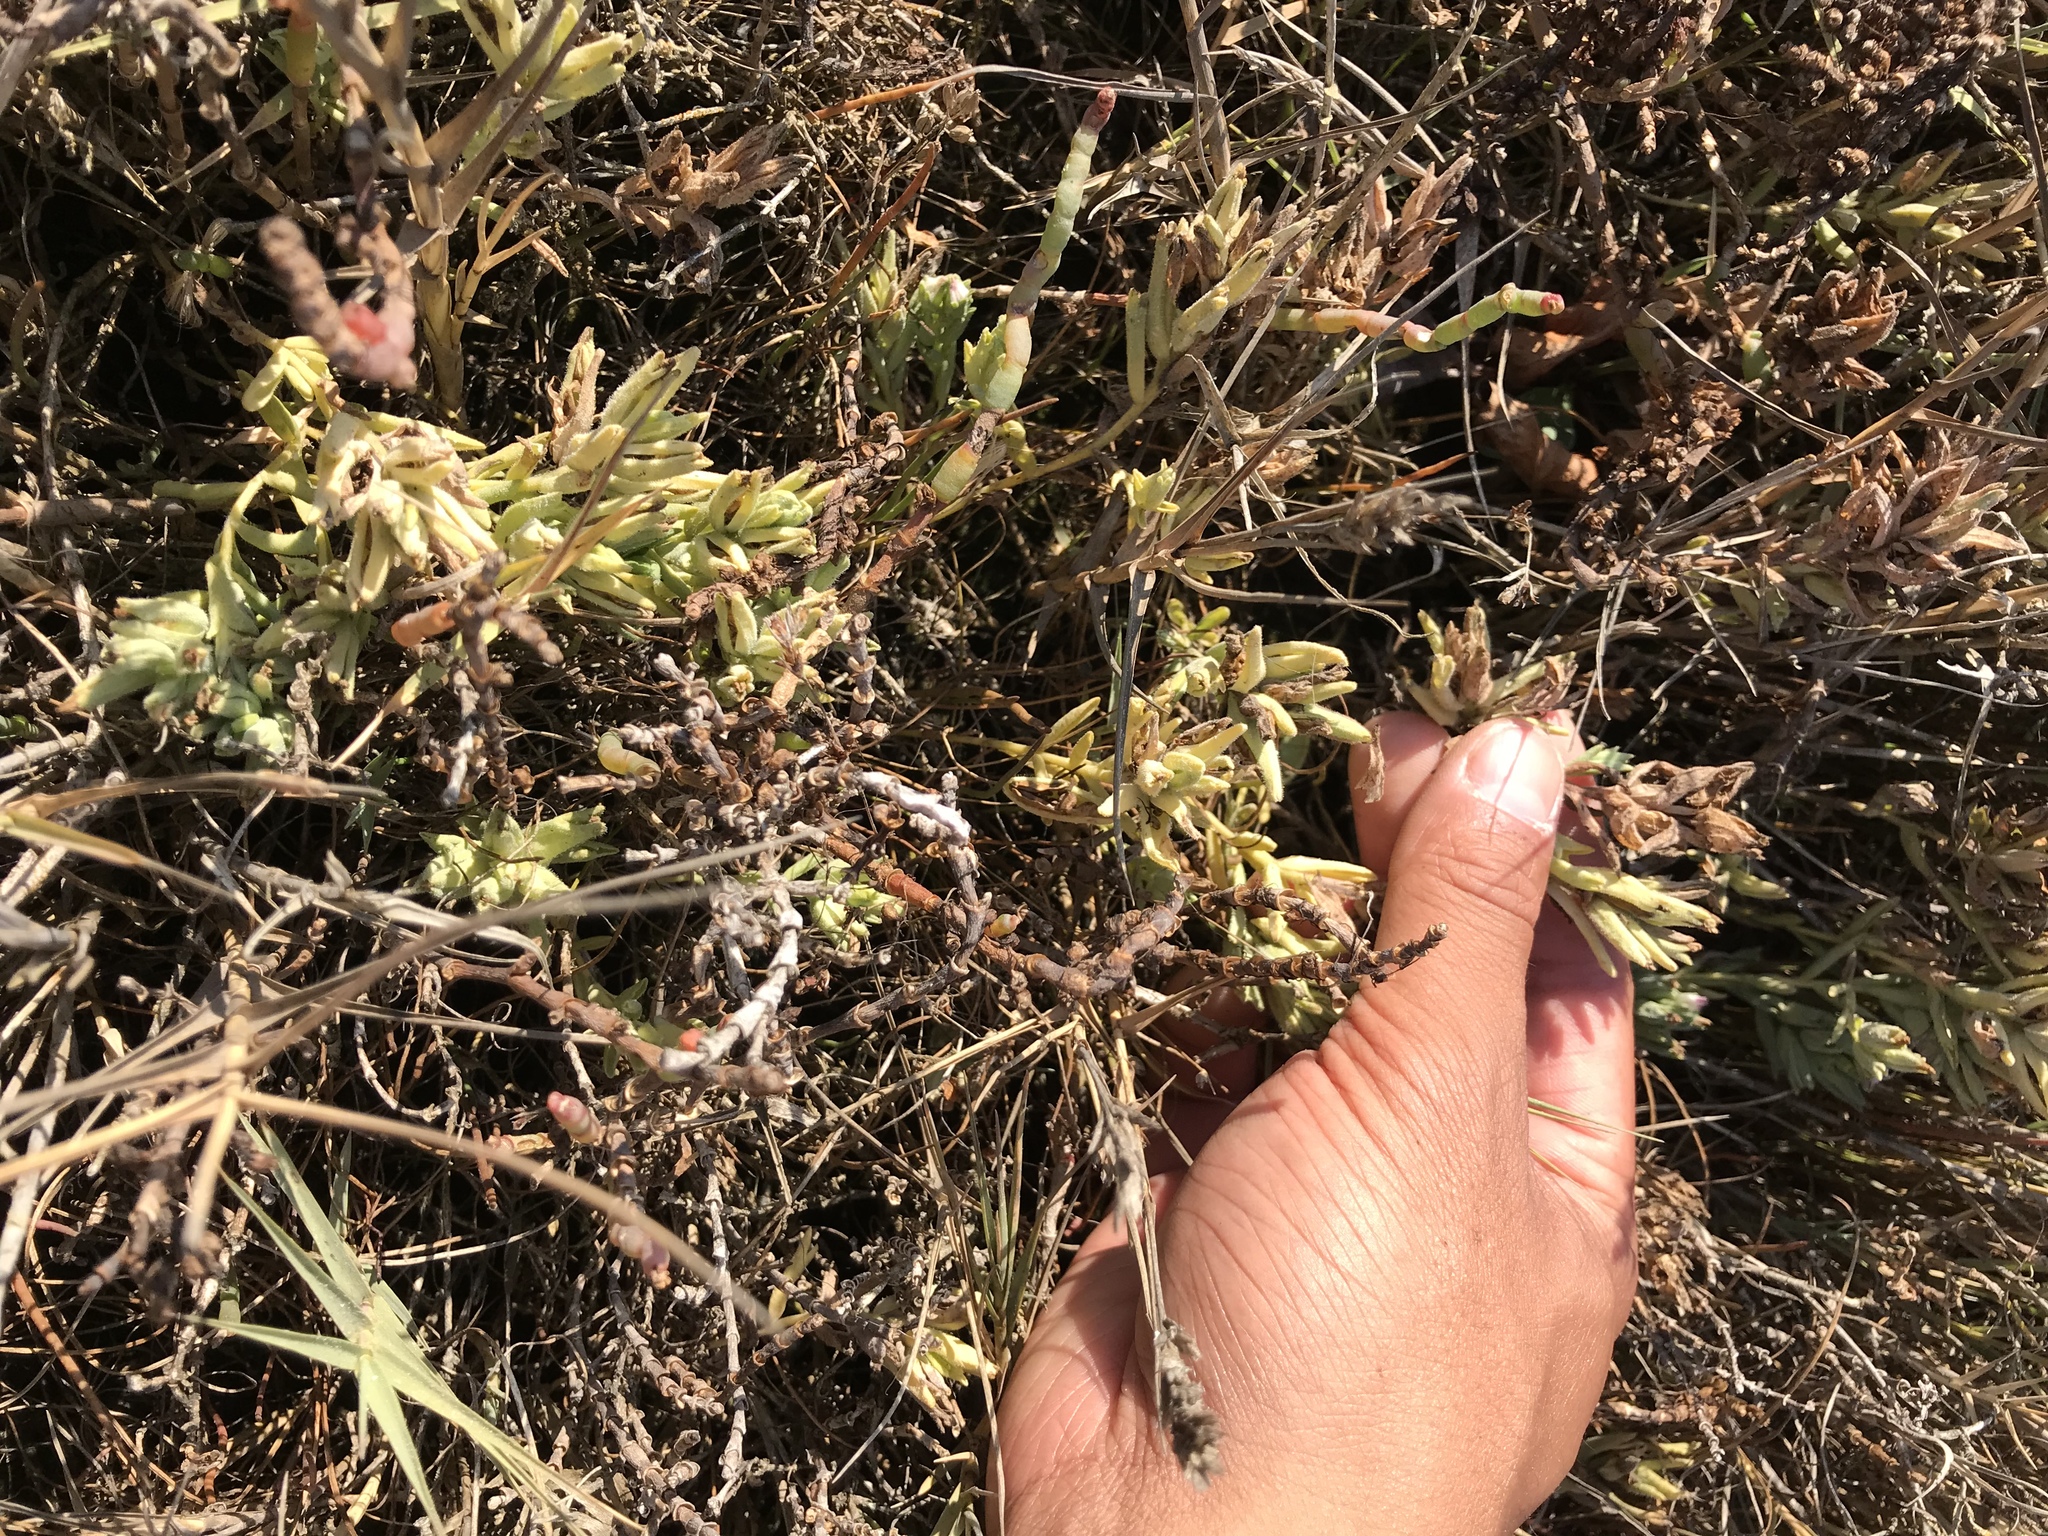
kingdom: Plantae
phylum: Tracheophyta
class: Magnoliopsida
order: Lamiales
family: Orobanchaceae
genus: Chloropyron
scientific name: Chloropyron maritimum
